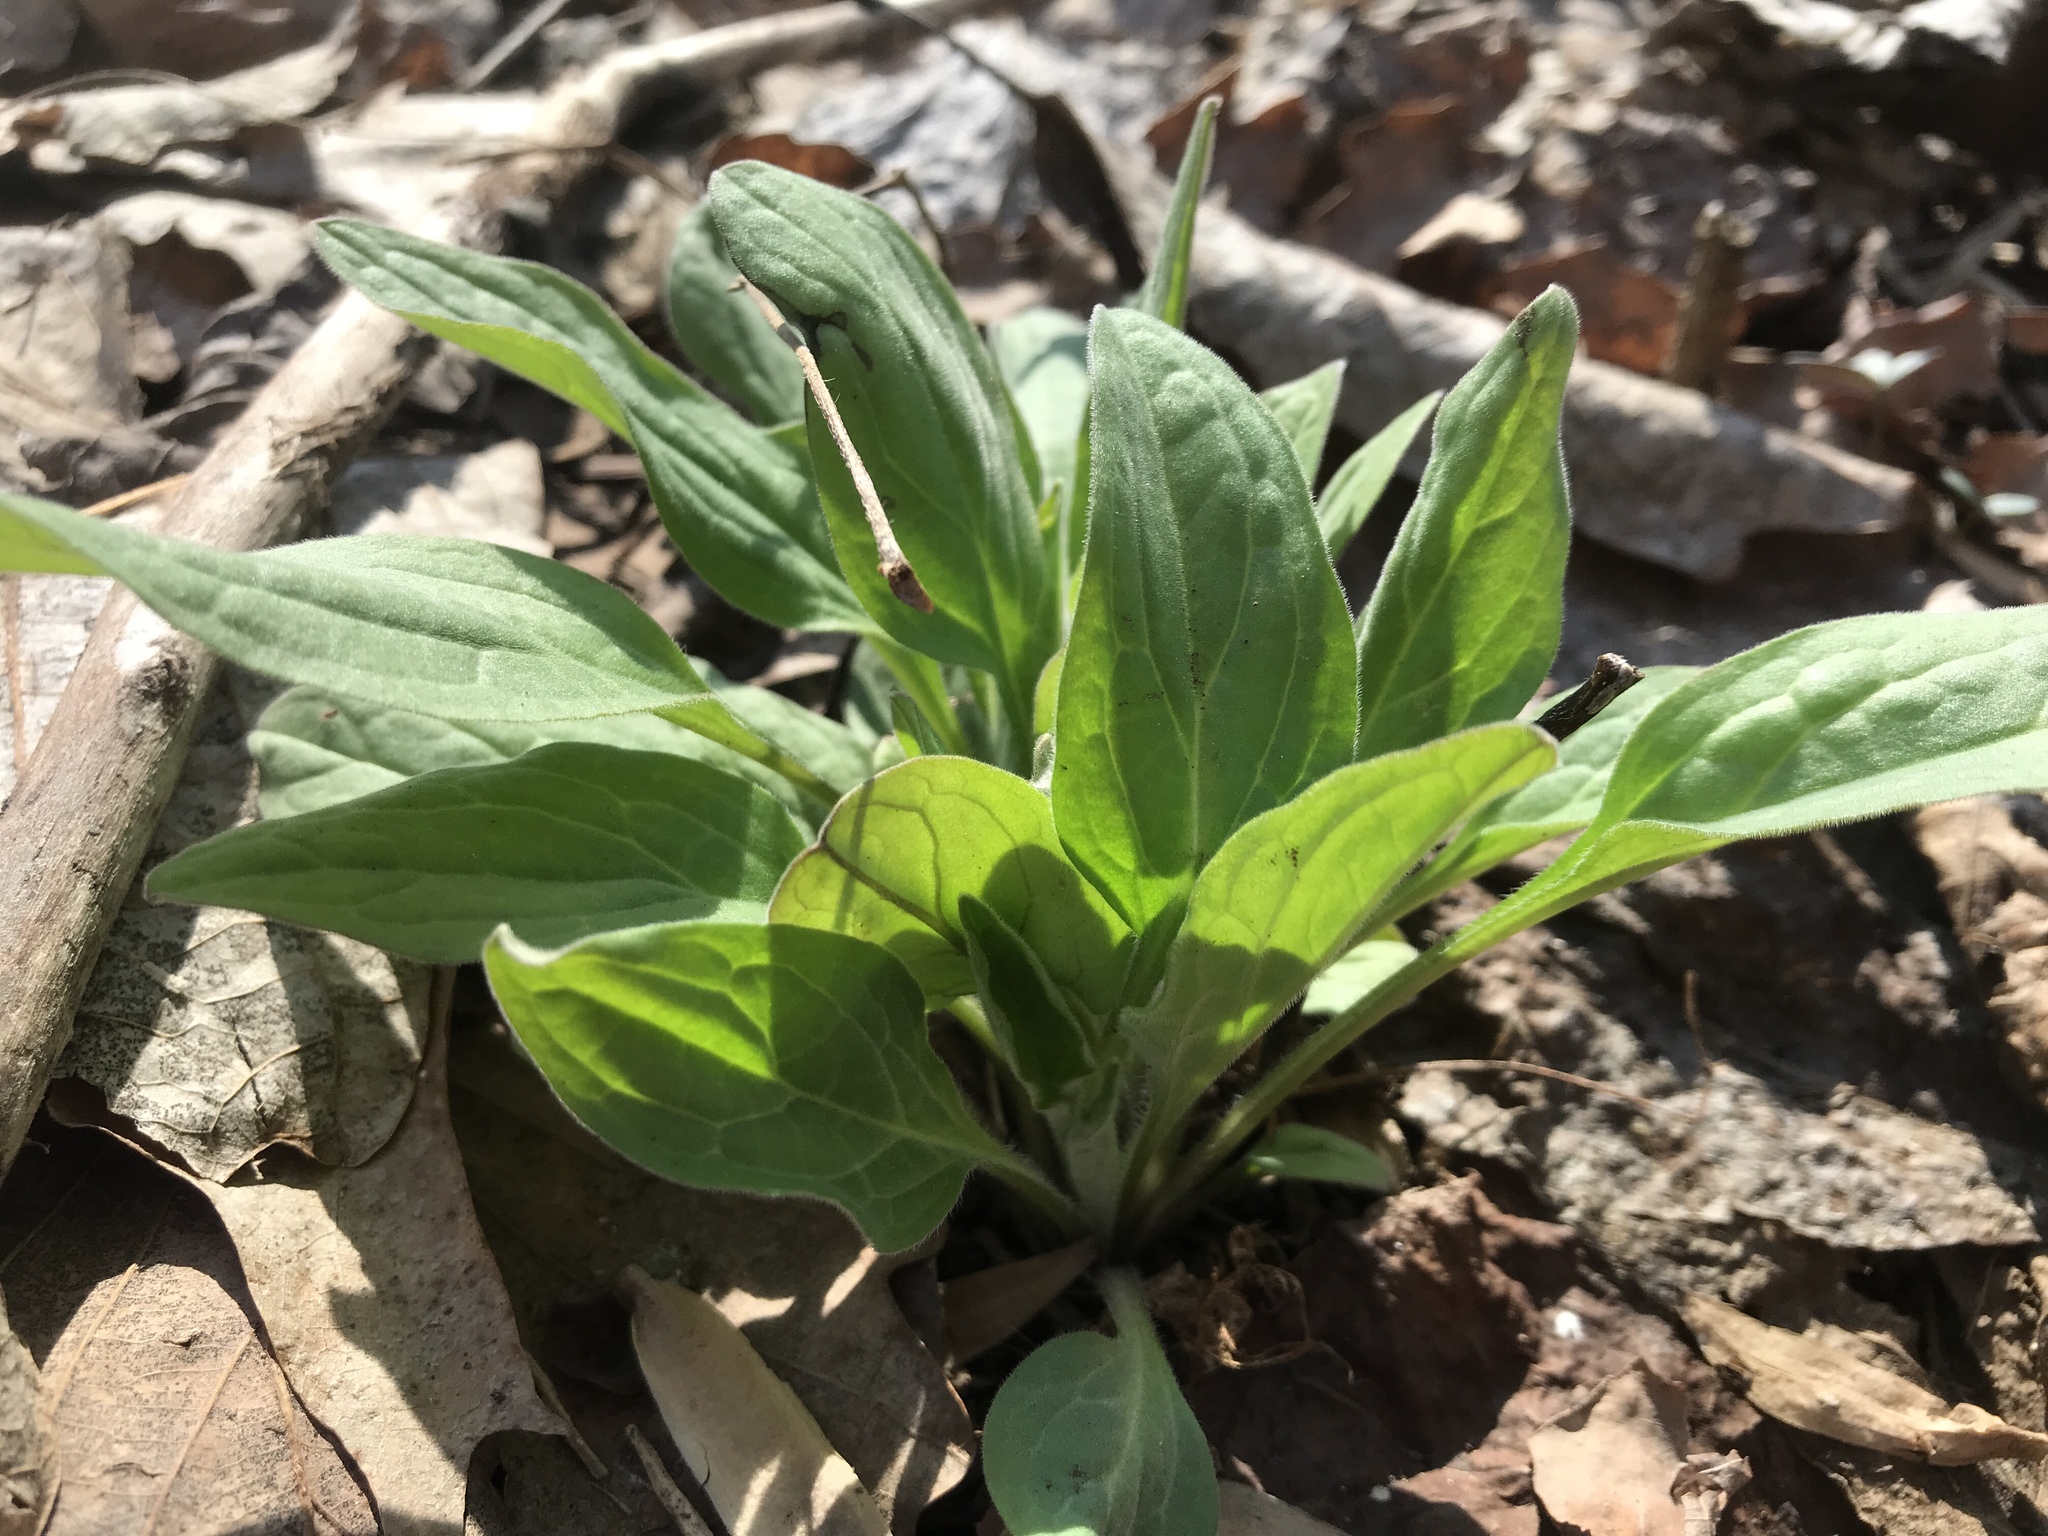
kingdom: Plantae
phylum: Tracheophyta
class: Magnoliopsida
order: Boraginales
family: Boraginaceae
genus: Hackelia
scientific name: Hackelia virginiana
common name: Beggar's-lice
